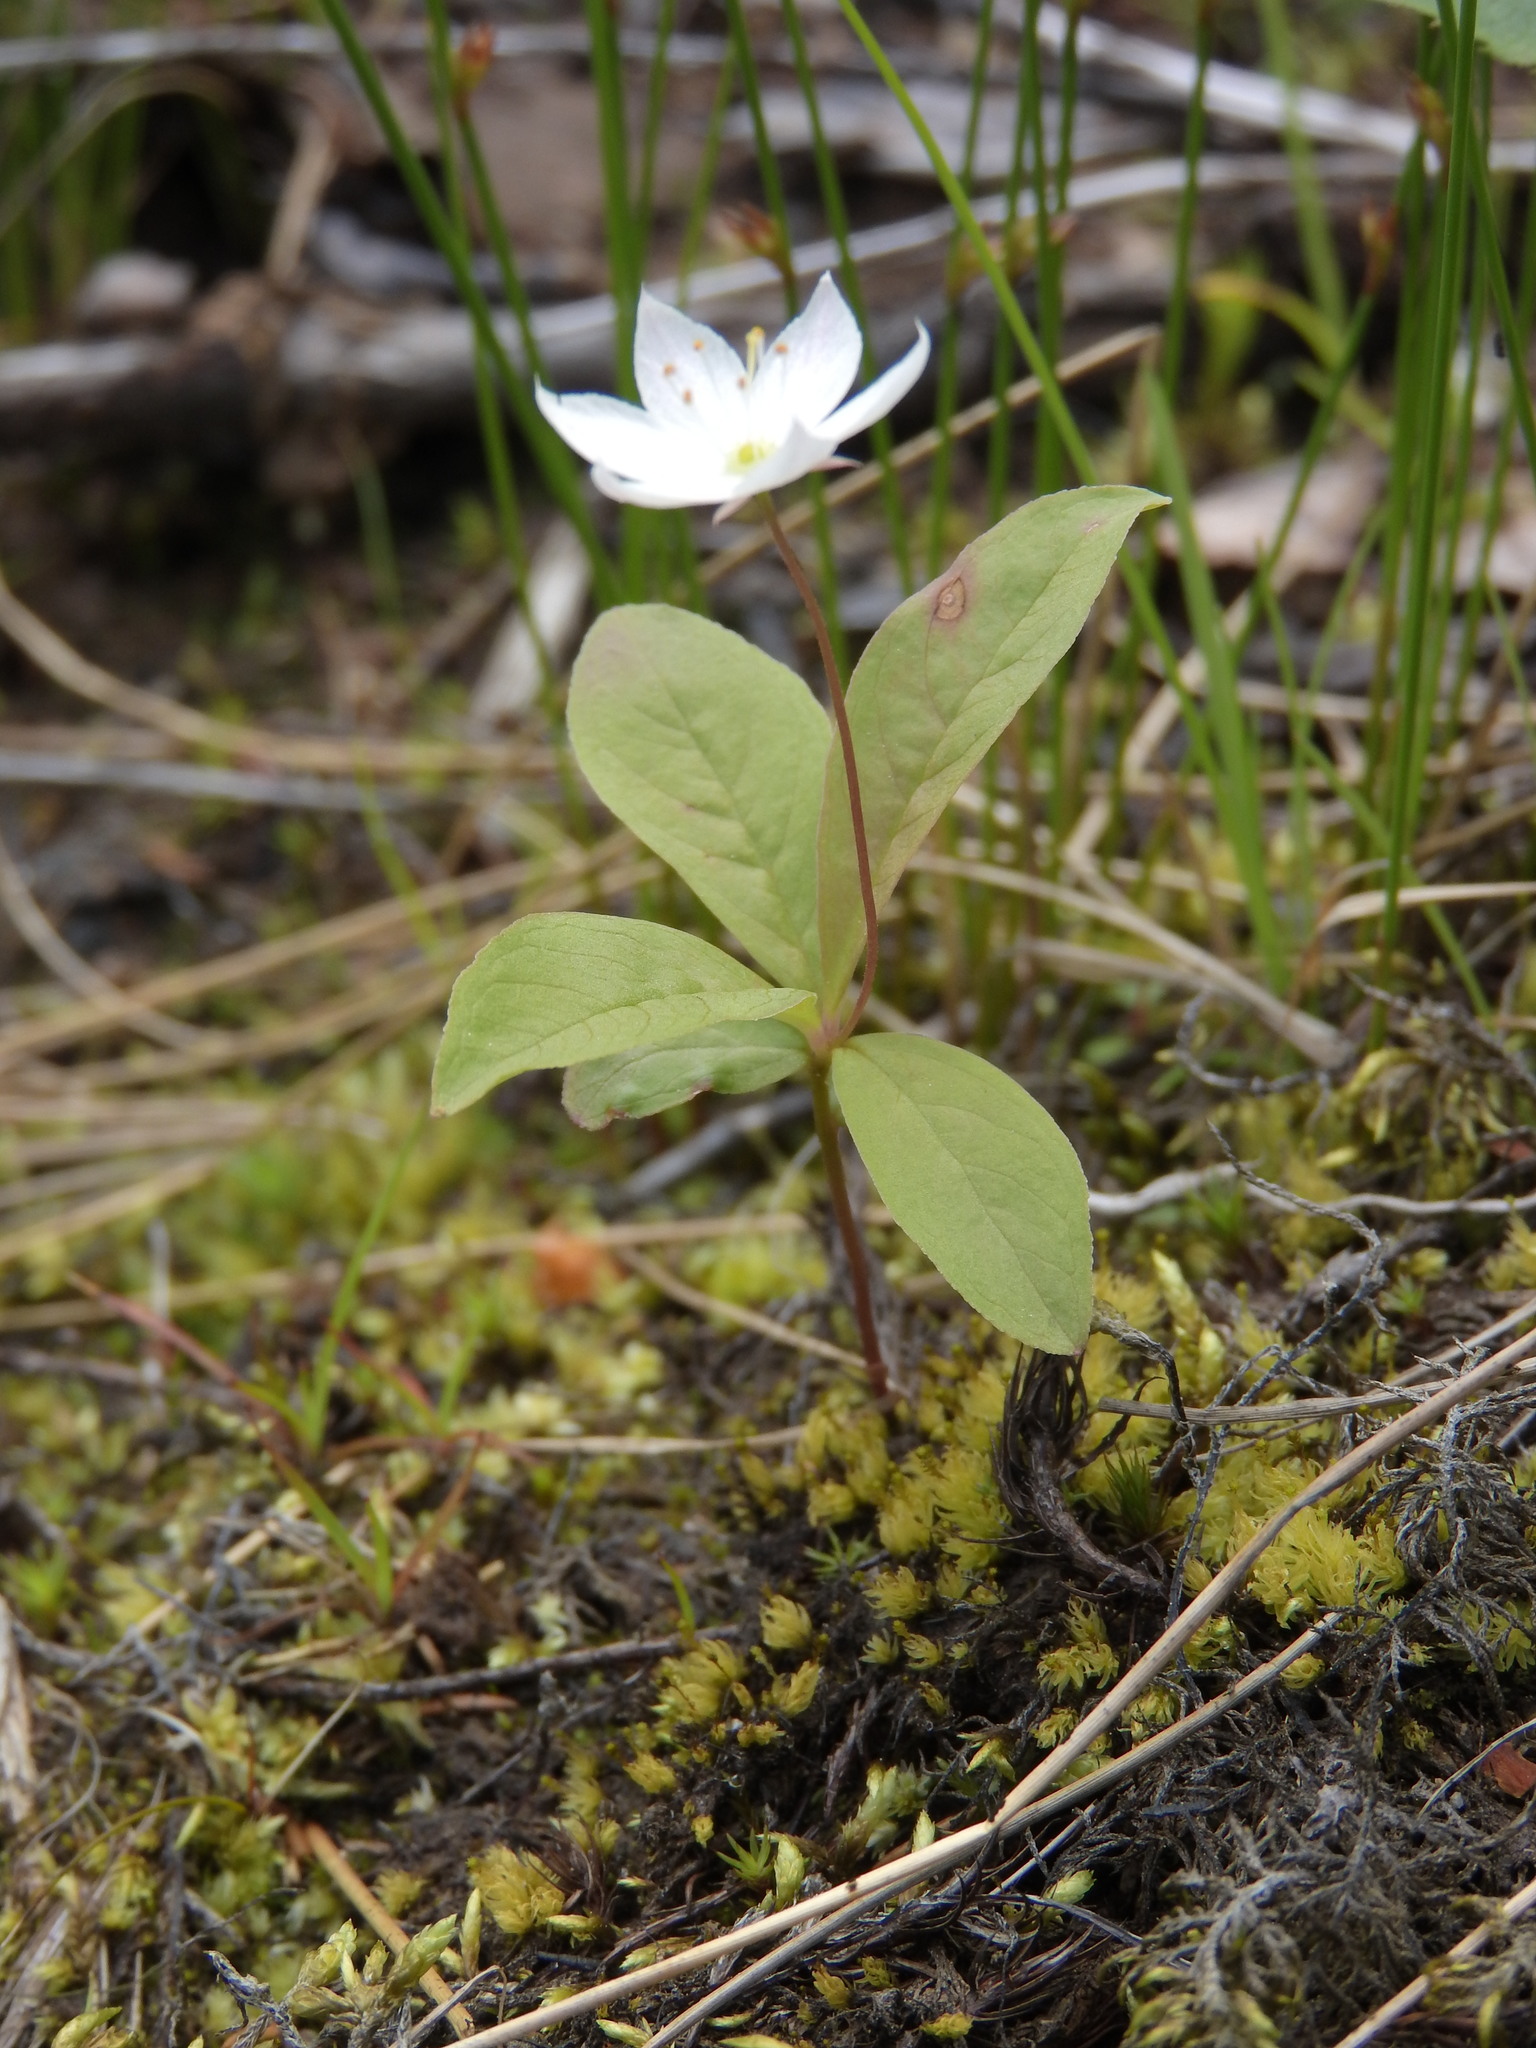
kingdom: Plantae
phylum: Tracheophyta
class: Magnoliopsida
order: Ericales
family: Primulaceae
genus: Lysimachia
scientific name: Lysimachia europaea
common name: Arctic starflower
